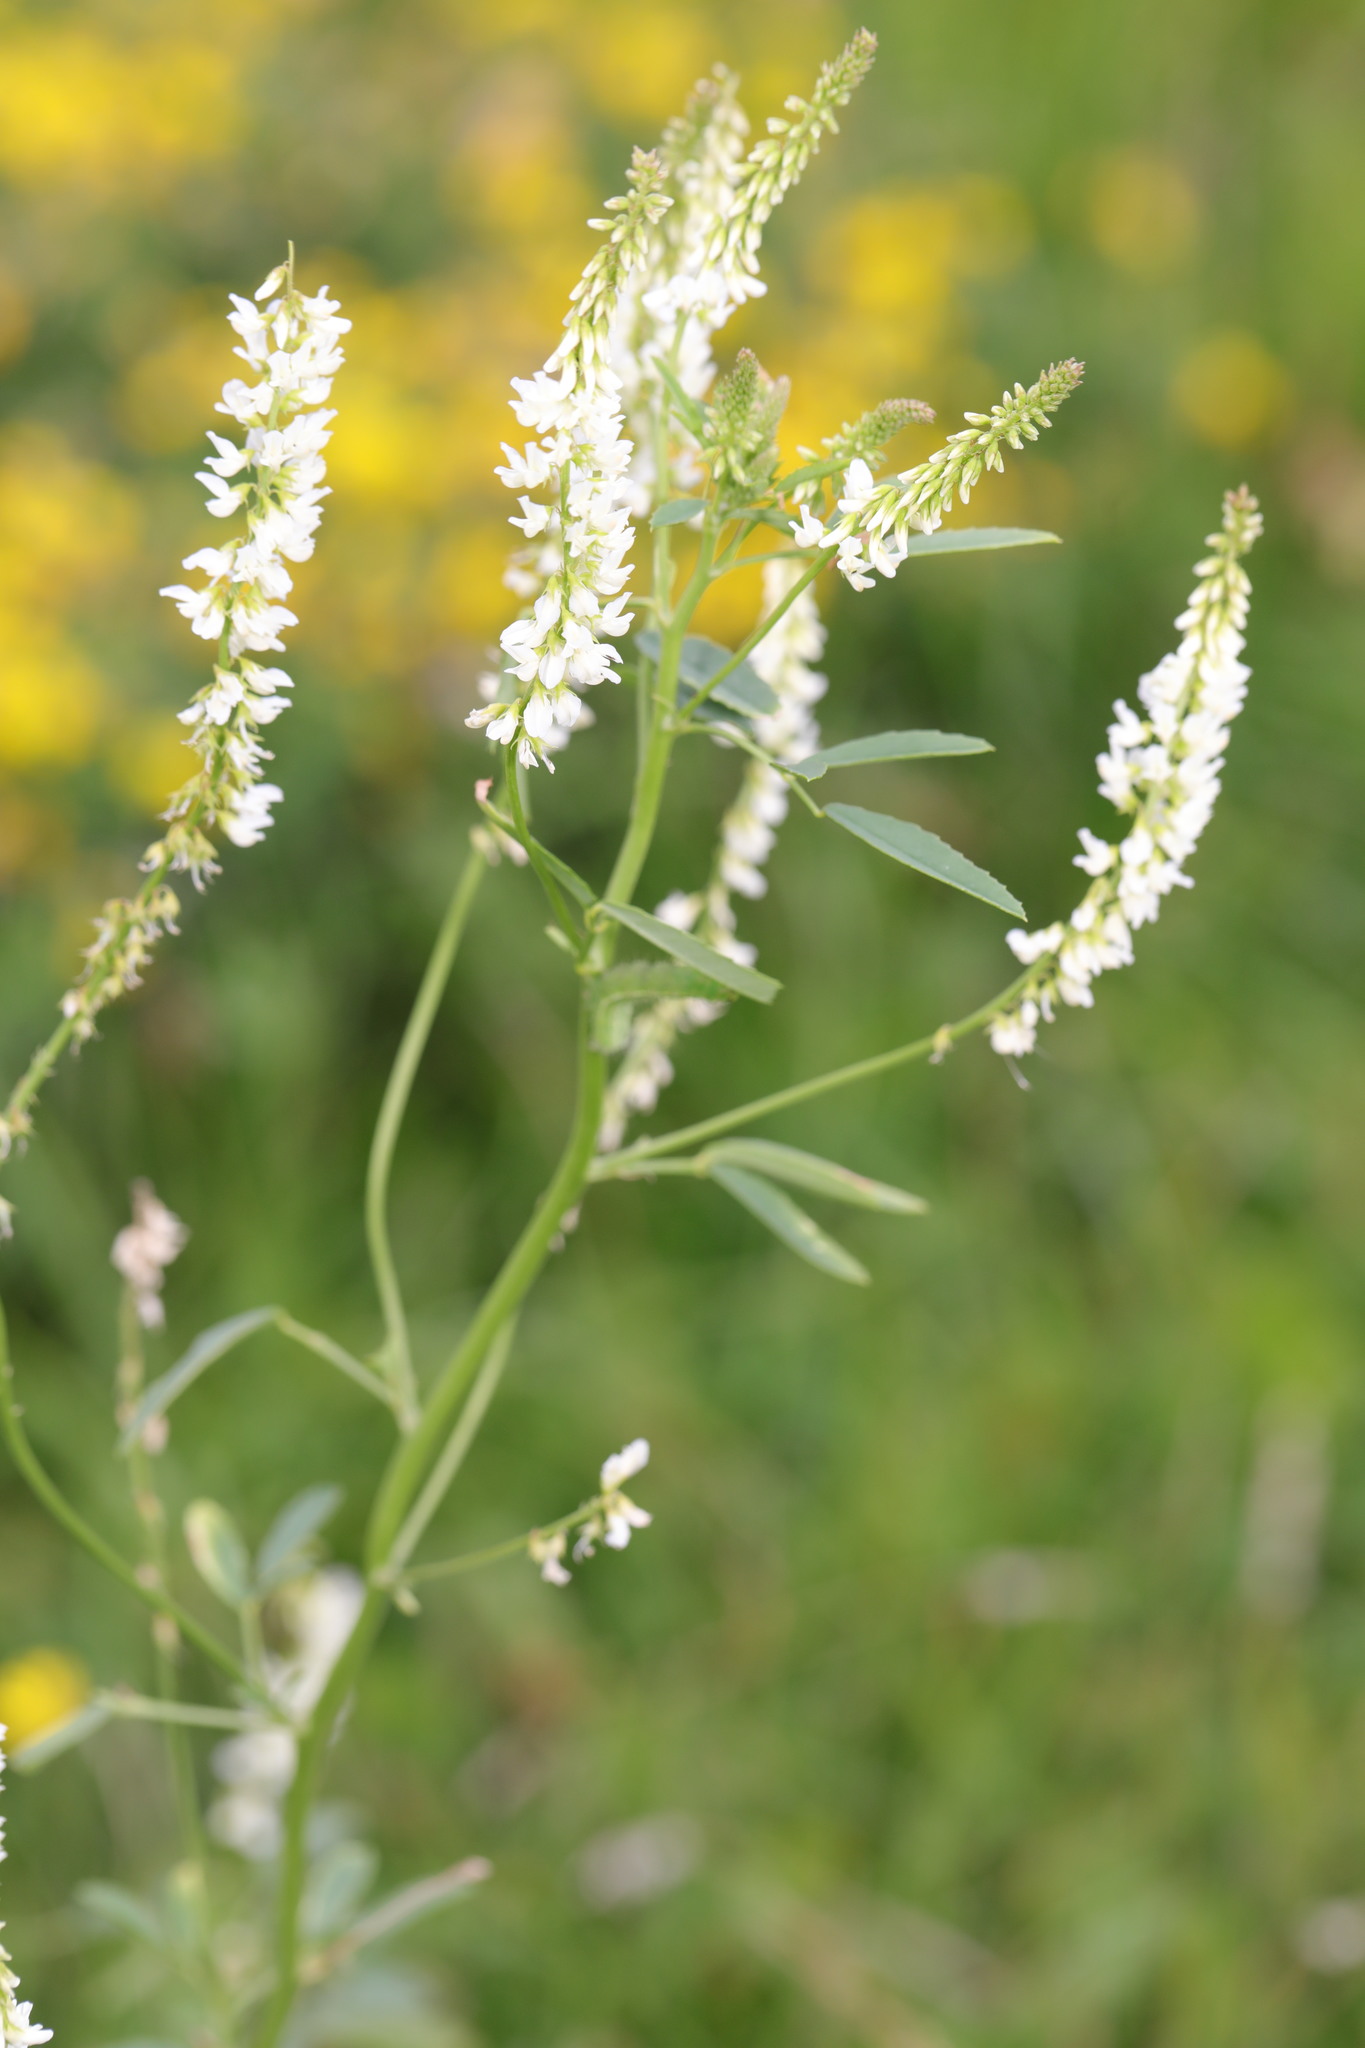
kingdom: Plantae
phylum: Tracheophyta
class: Magnoliopsida
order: Fabales
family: Fabaceae
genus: Melilotus
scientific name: Melilotus albus
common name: White melilot
